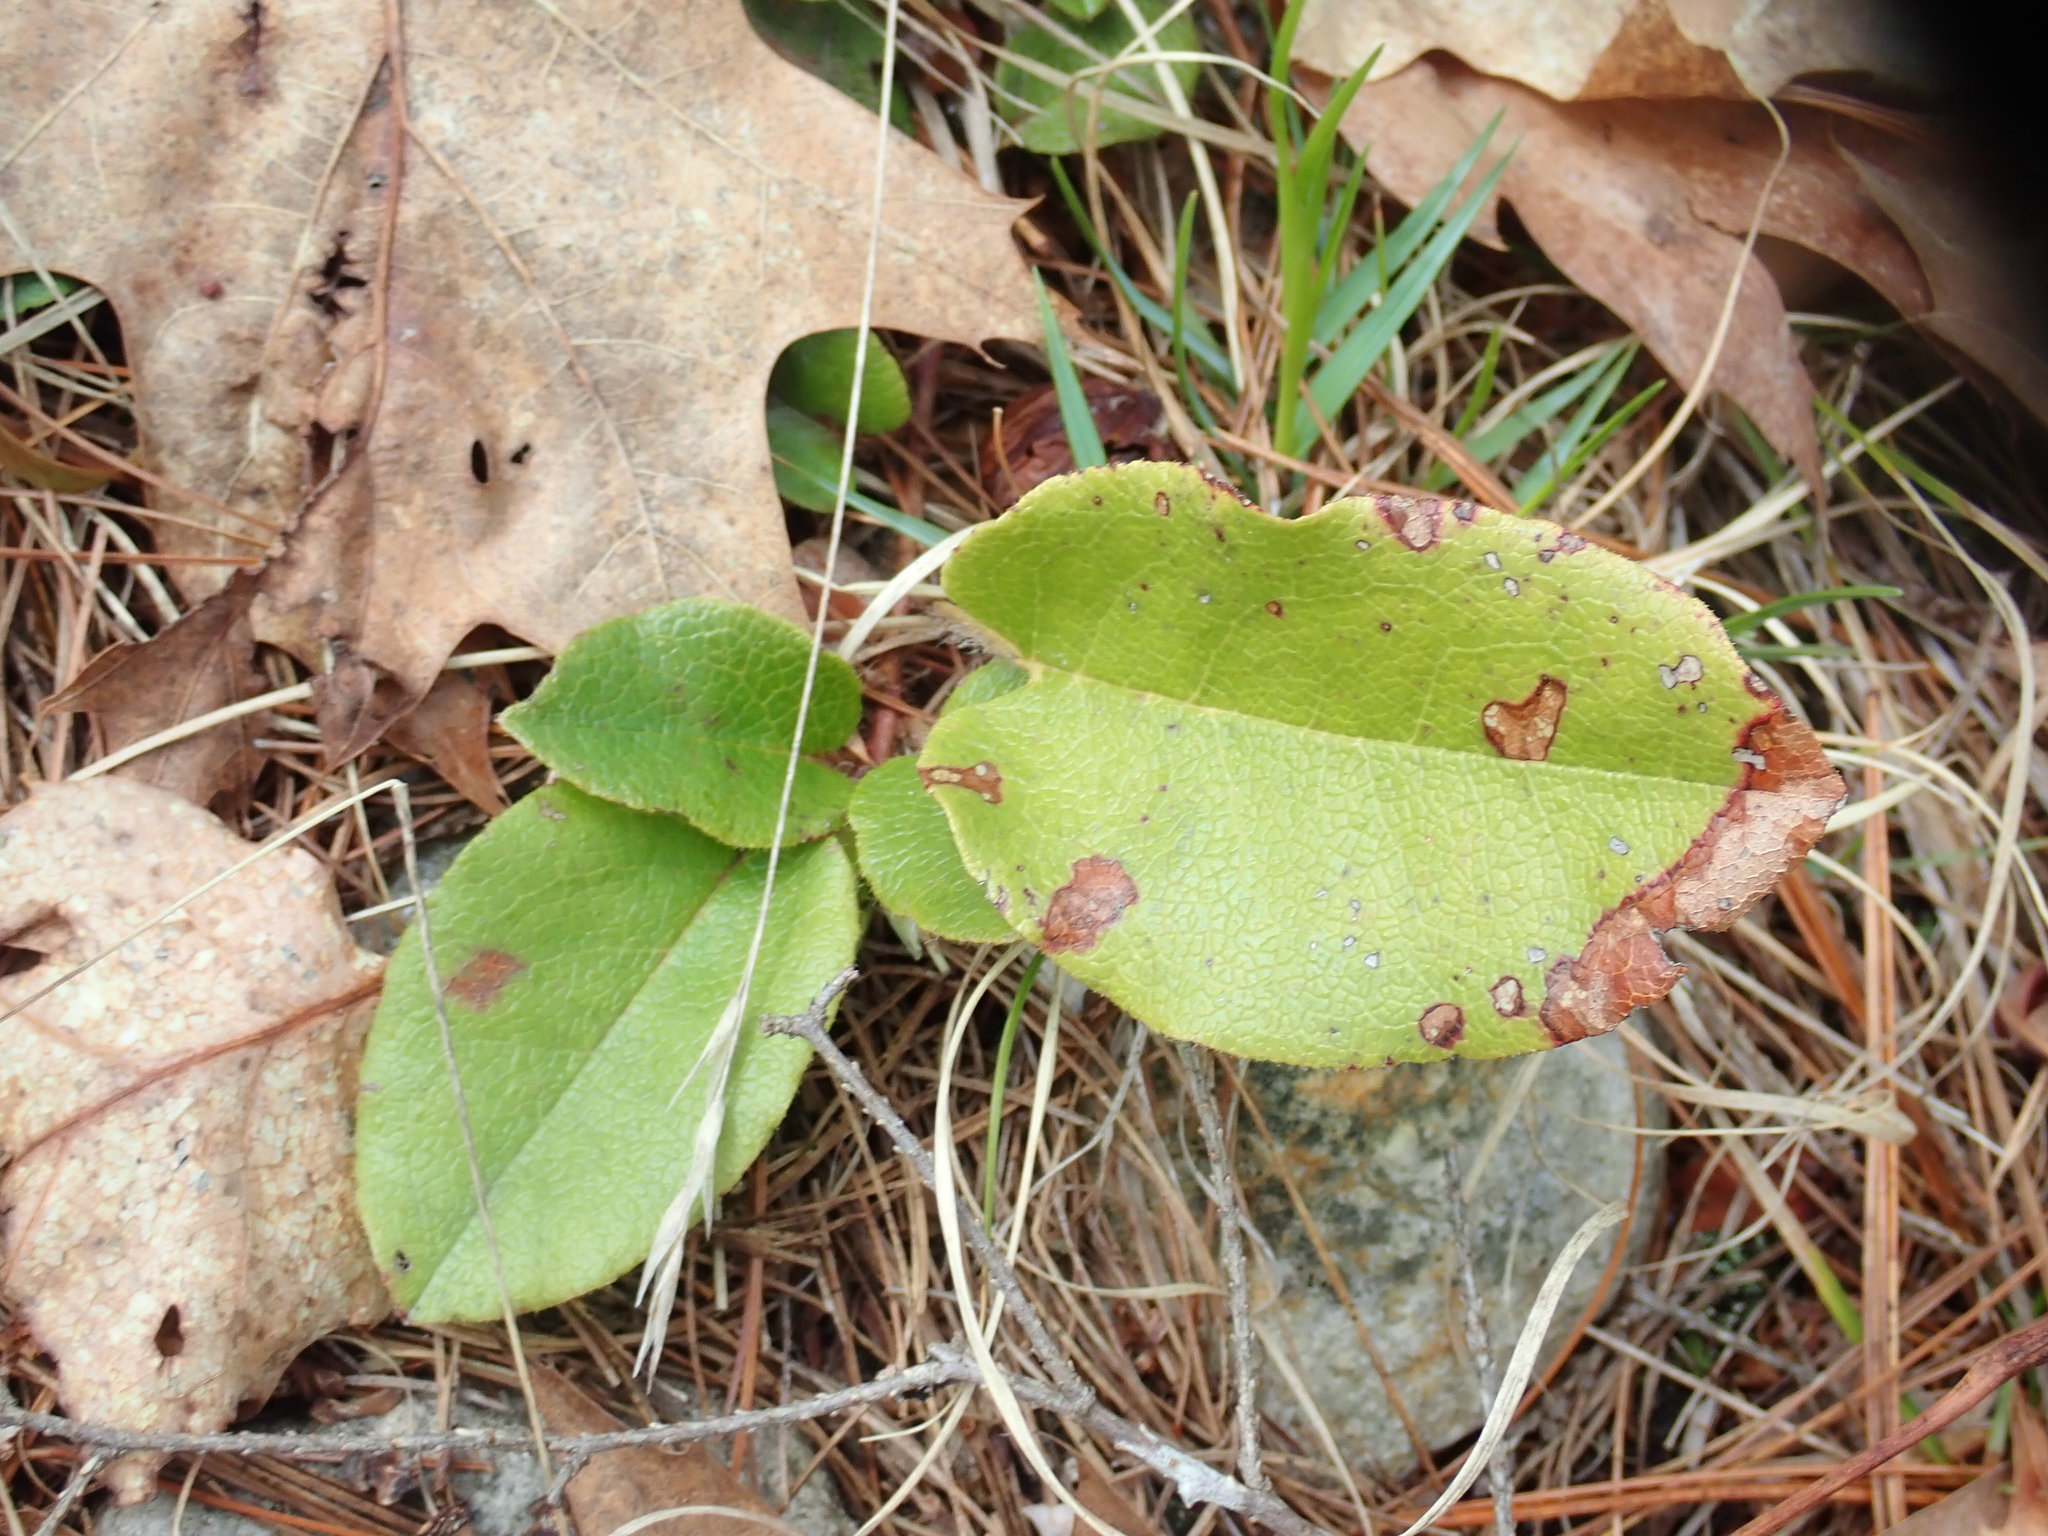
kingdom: Plantae
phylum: Tracheophyta
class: Magnoliopsida
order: Ericales
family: Ericaceae
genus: Epigaea
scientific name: Epigaea repens
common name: Gravelroot
